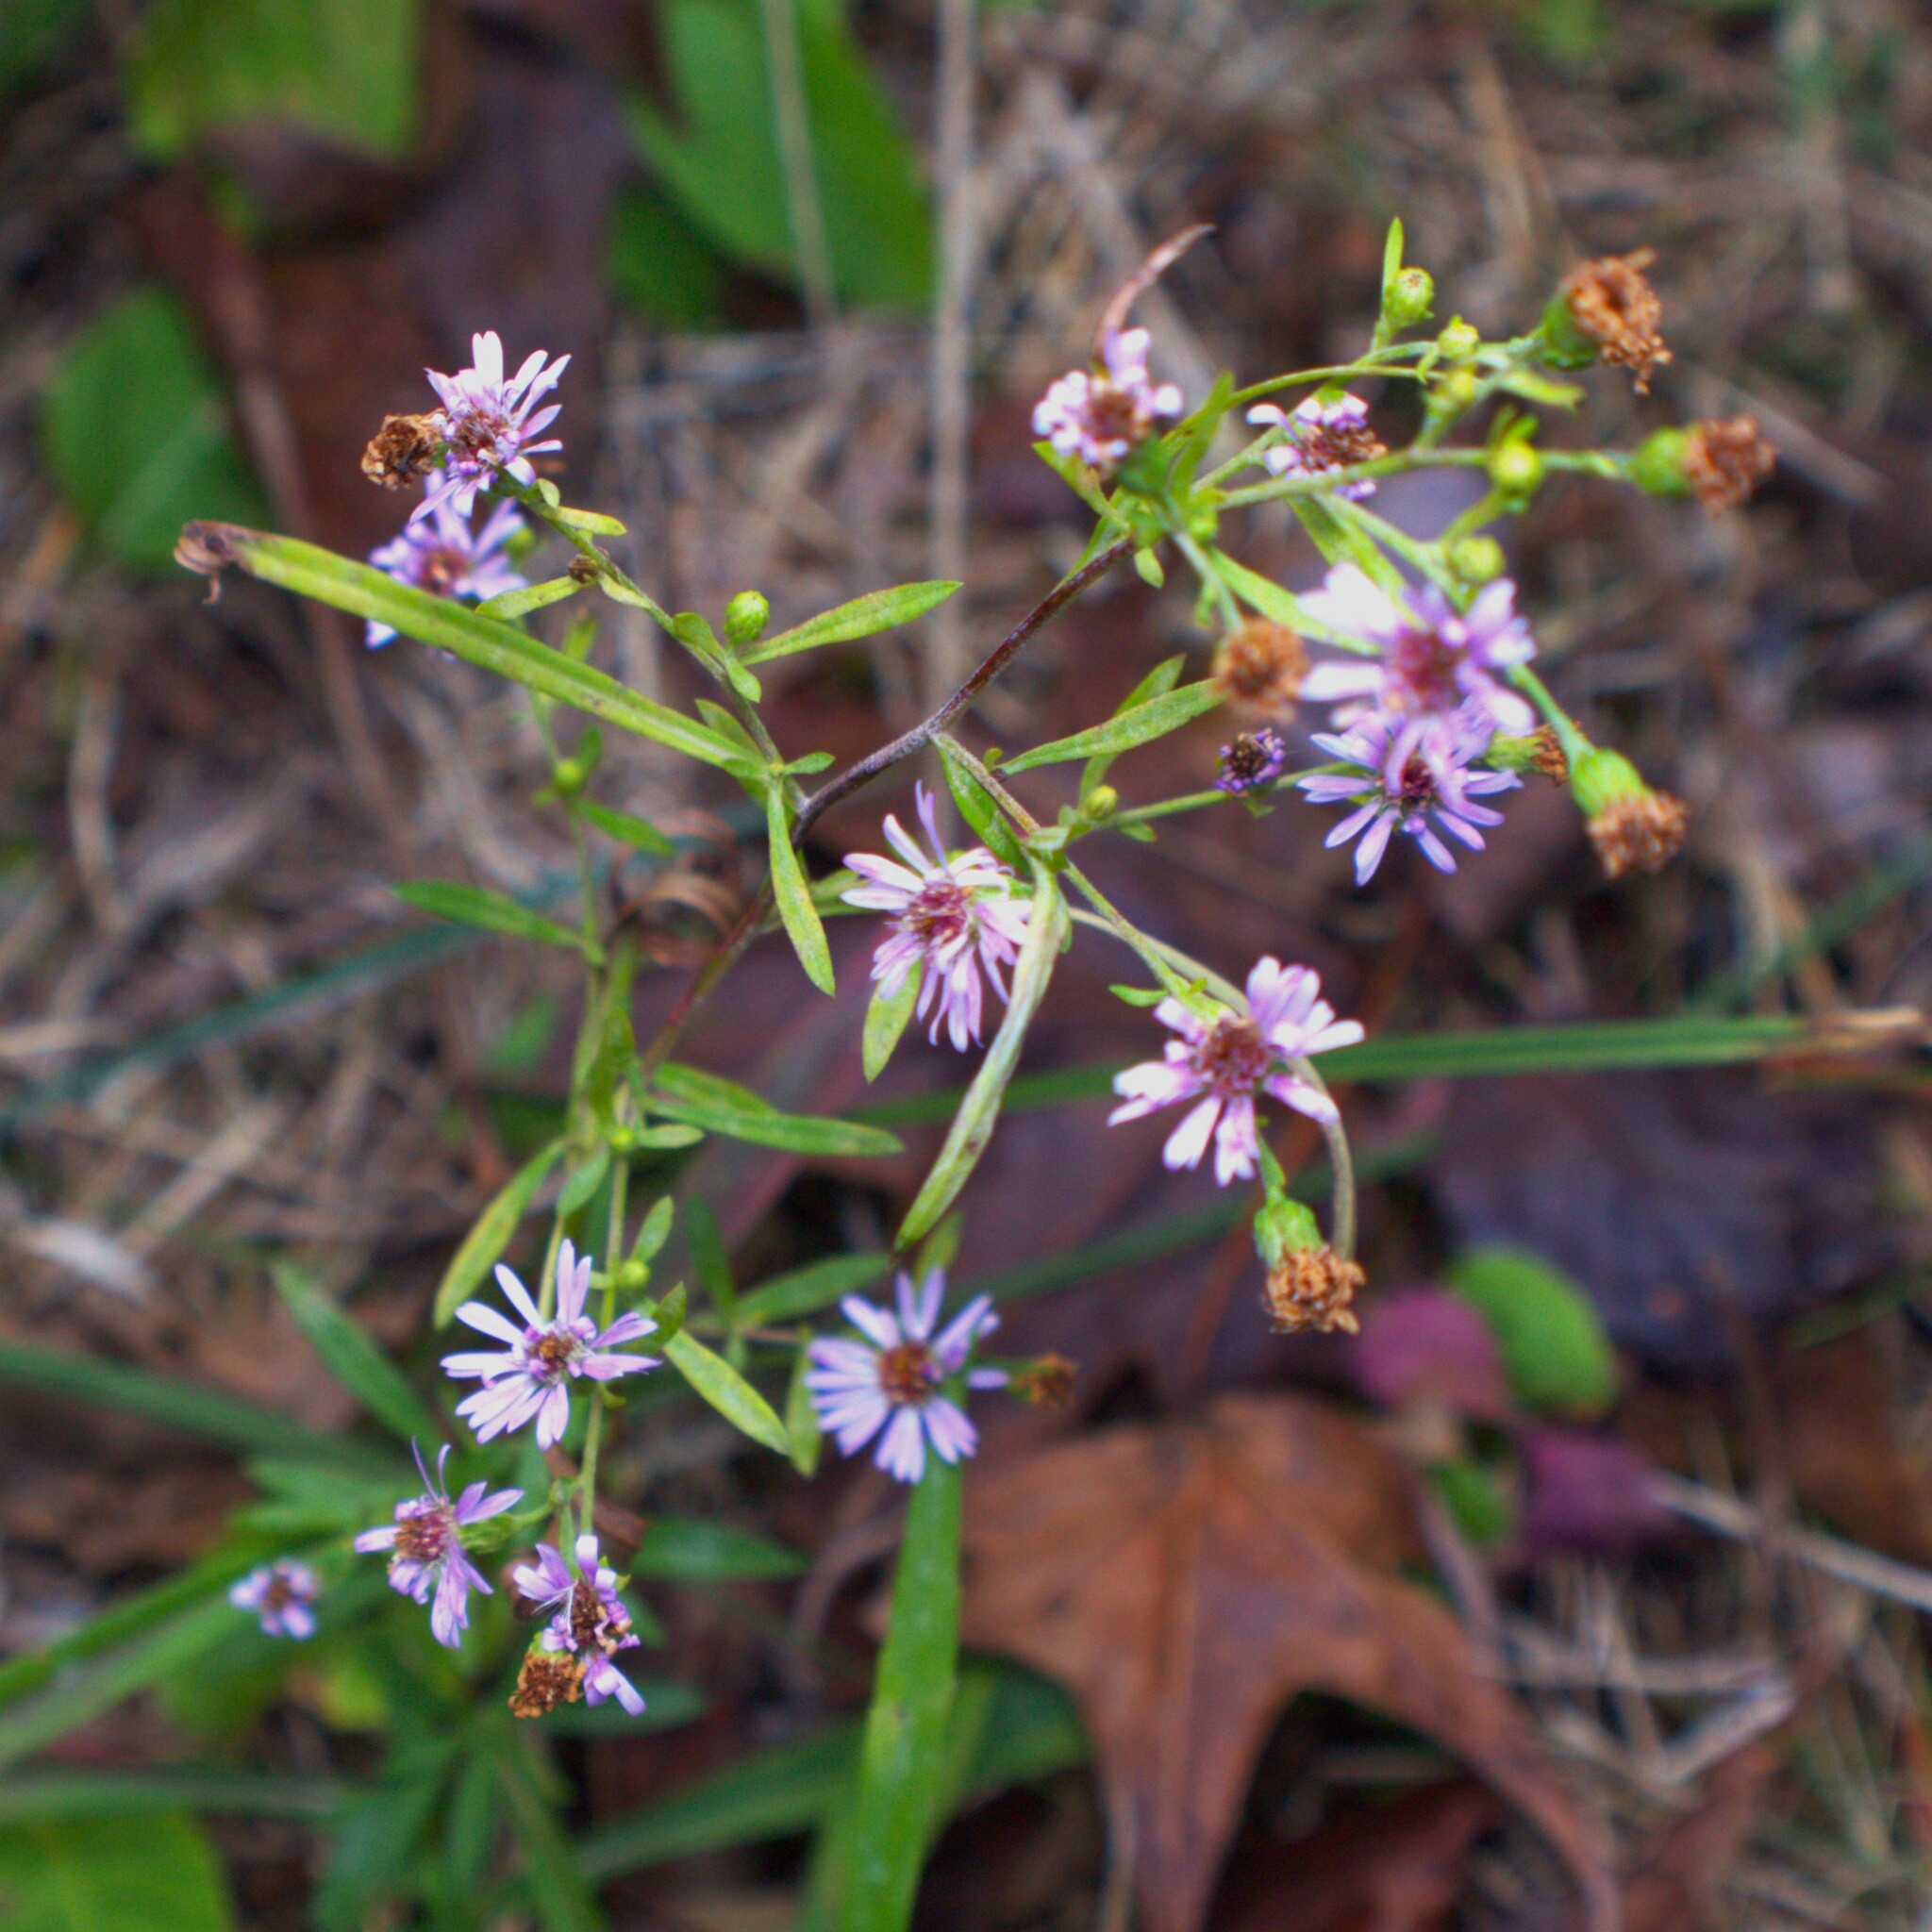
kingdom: Plantae
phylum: Tracheophyta
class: Magnoliopsida
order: Asterales
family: Asteraceae
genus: Symphyotrichum
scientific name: Symphyotrichum
